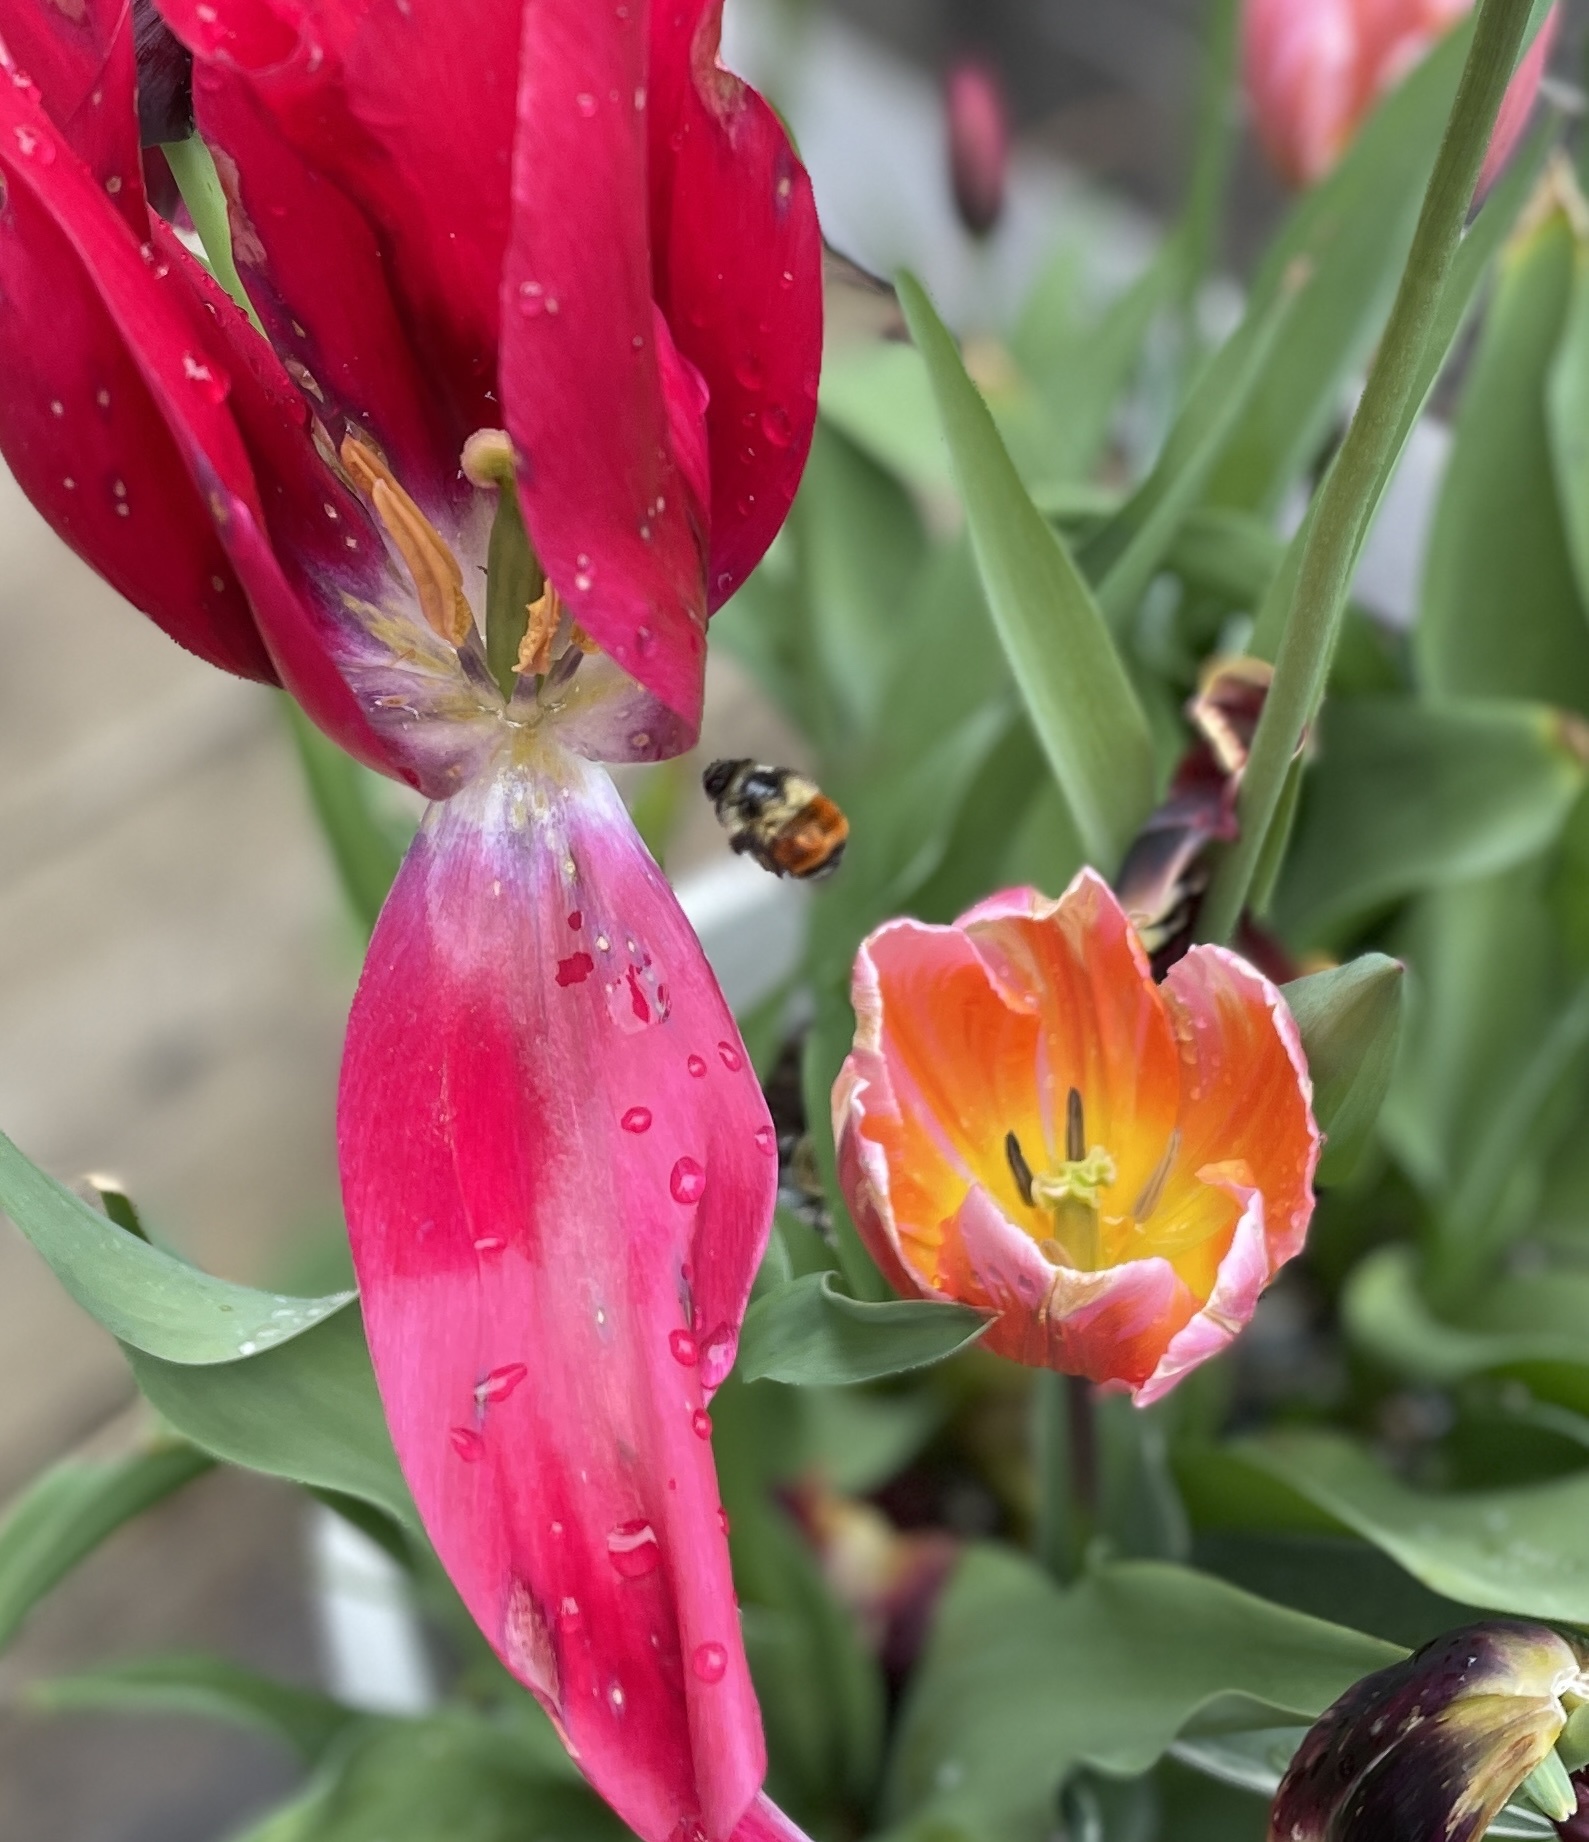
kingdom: Animalia
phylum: Arthropoda
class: Insecta
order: Hymenoptera
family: Apidae
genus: Bombus
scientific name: Bombus melanopygus
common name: Black tail bumble bee
